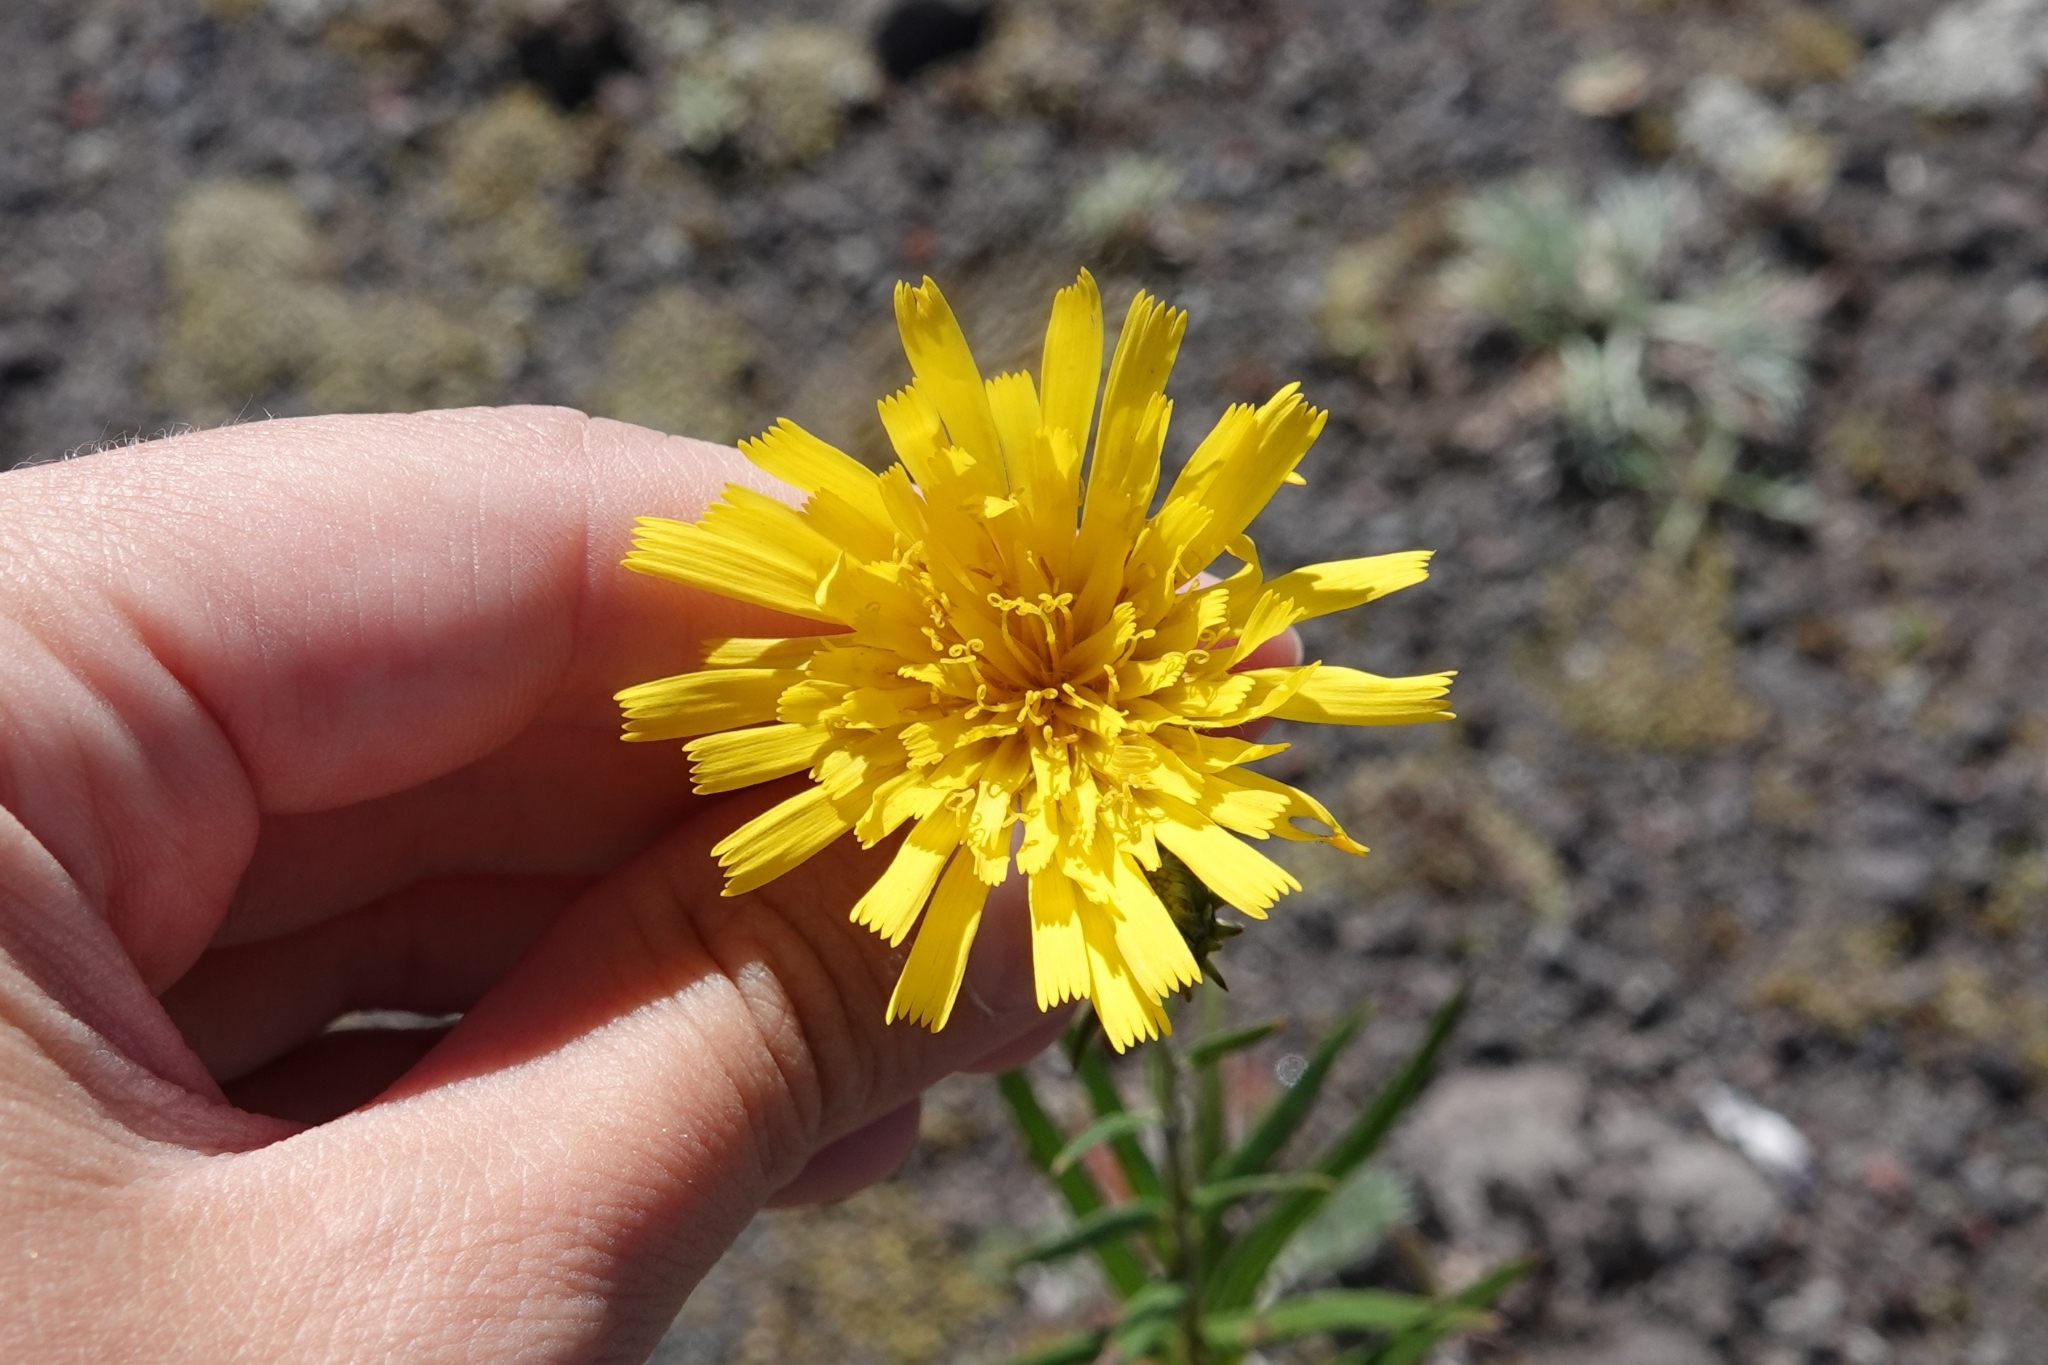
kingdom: Plantae
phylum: Tracheophyta
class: Magnoliopsida
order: Asterales
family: Asteraceae
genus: Hieracium
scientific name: Hieracium umbellatum
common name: Northern hawkweed
